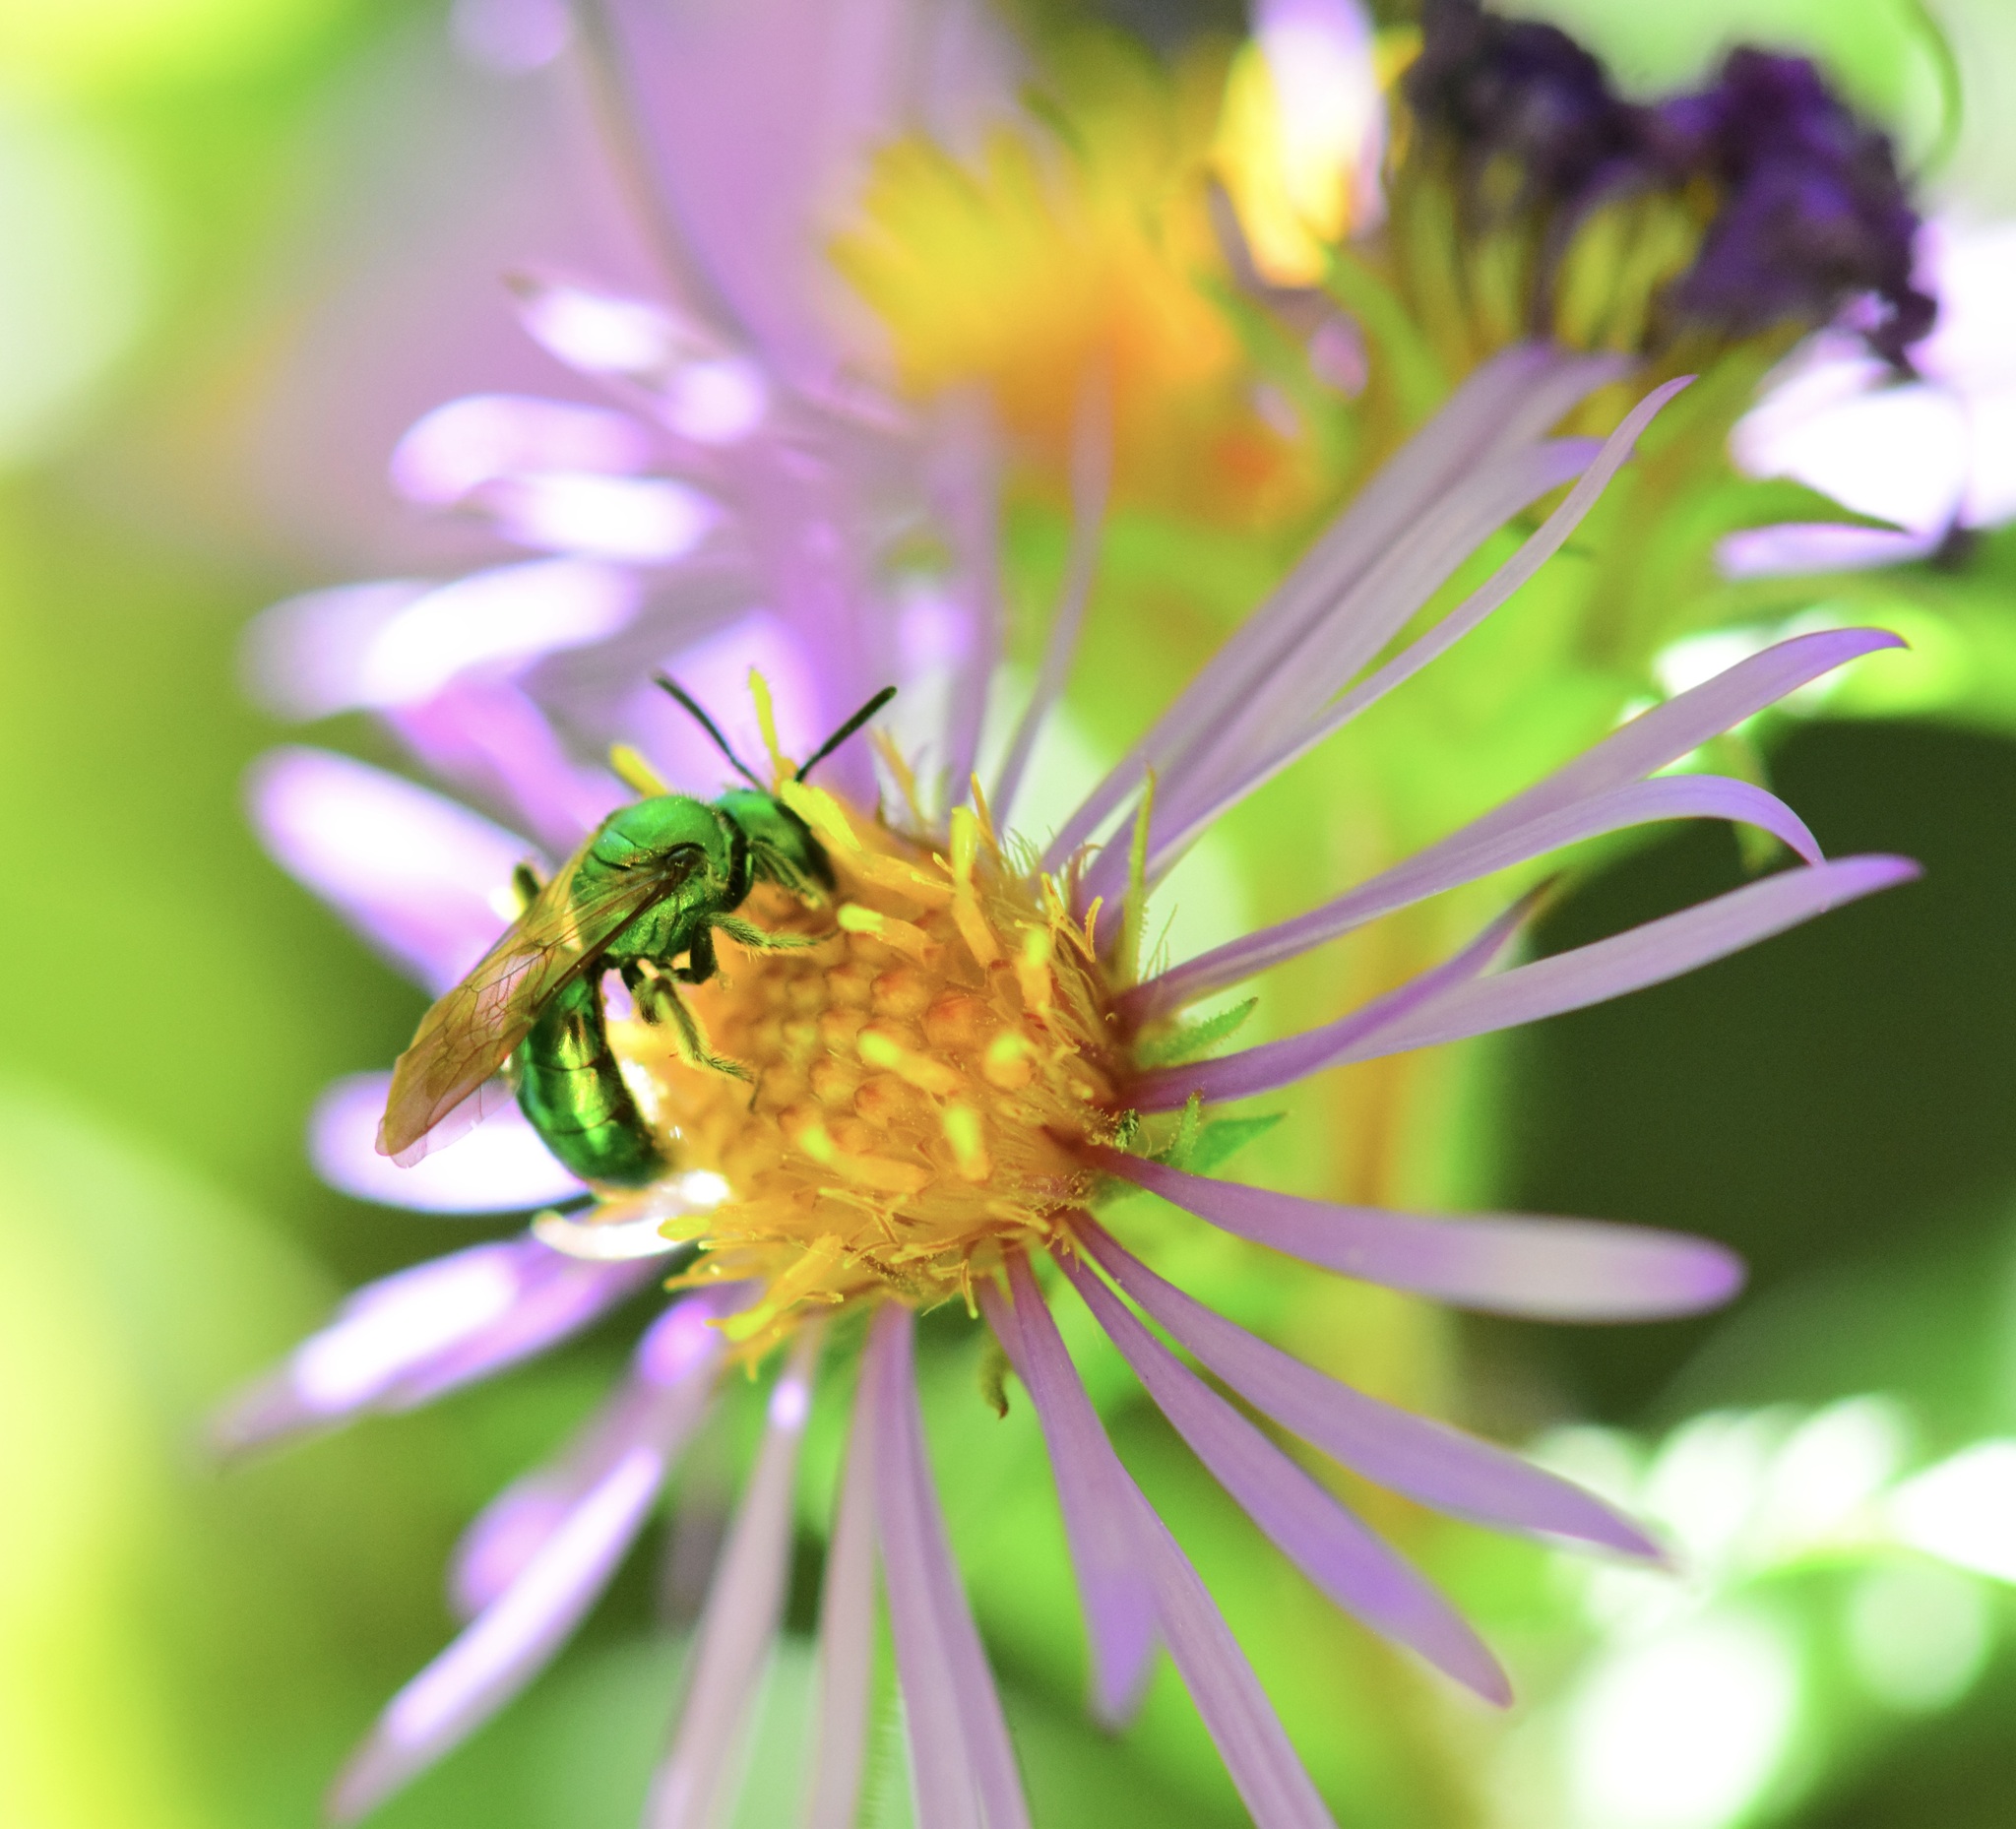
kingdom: Animalia
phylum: Arthropoda
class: Insecta
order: Hymenoptera
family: Halictidae
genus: Augochlora
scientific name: Augochlora pura
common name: Pure green sweat bee
